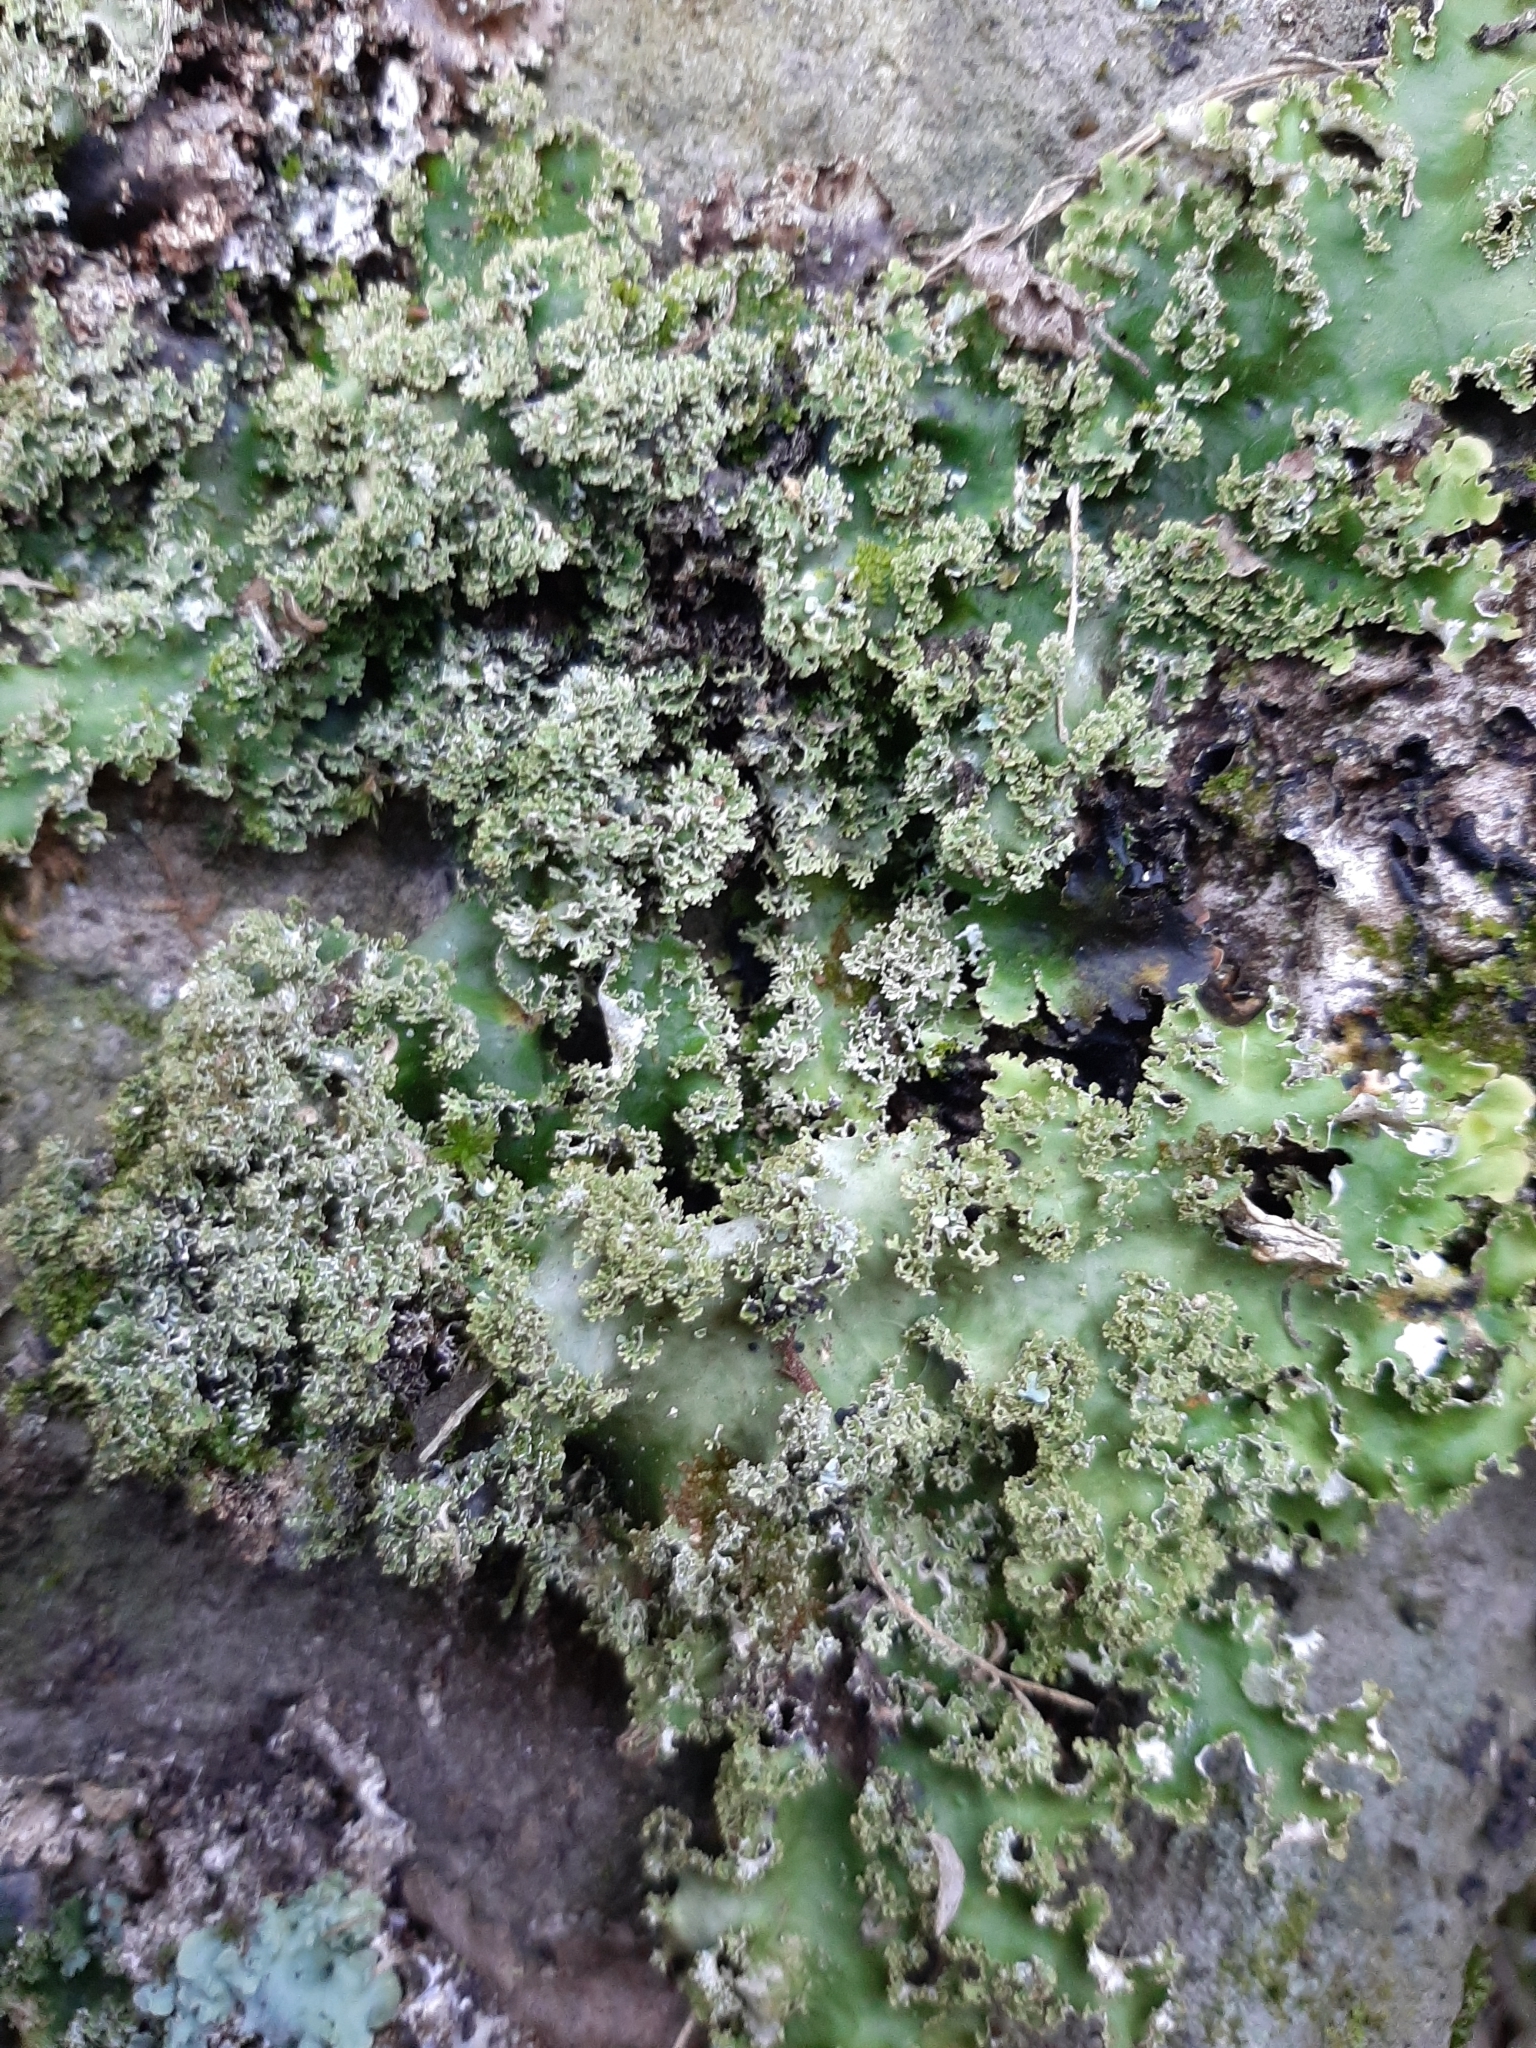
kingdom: Fungi
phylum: Ascomycota
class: Lecanoromycetes
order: Peltigerales
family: Lobariaceae
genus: Pseudocyphellaria
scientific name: Pseudocyphellaria glabra
